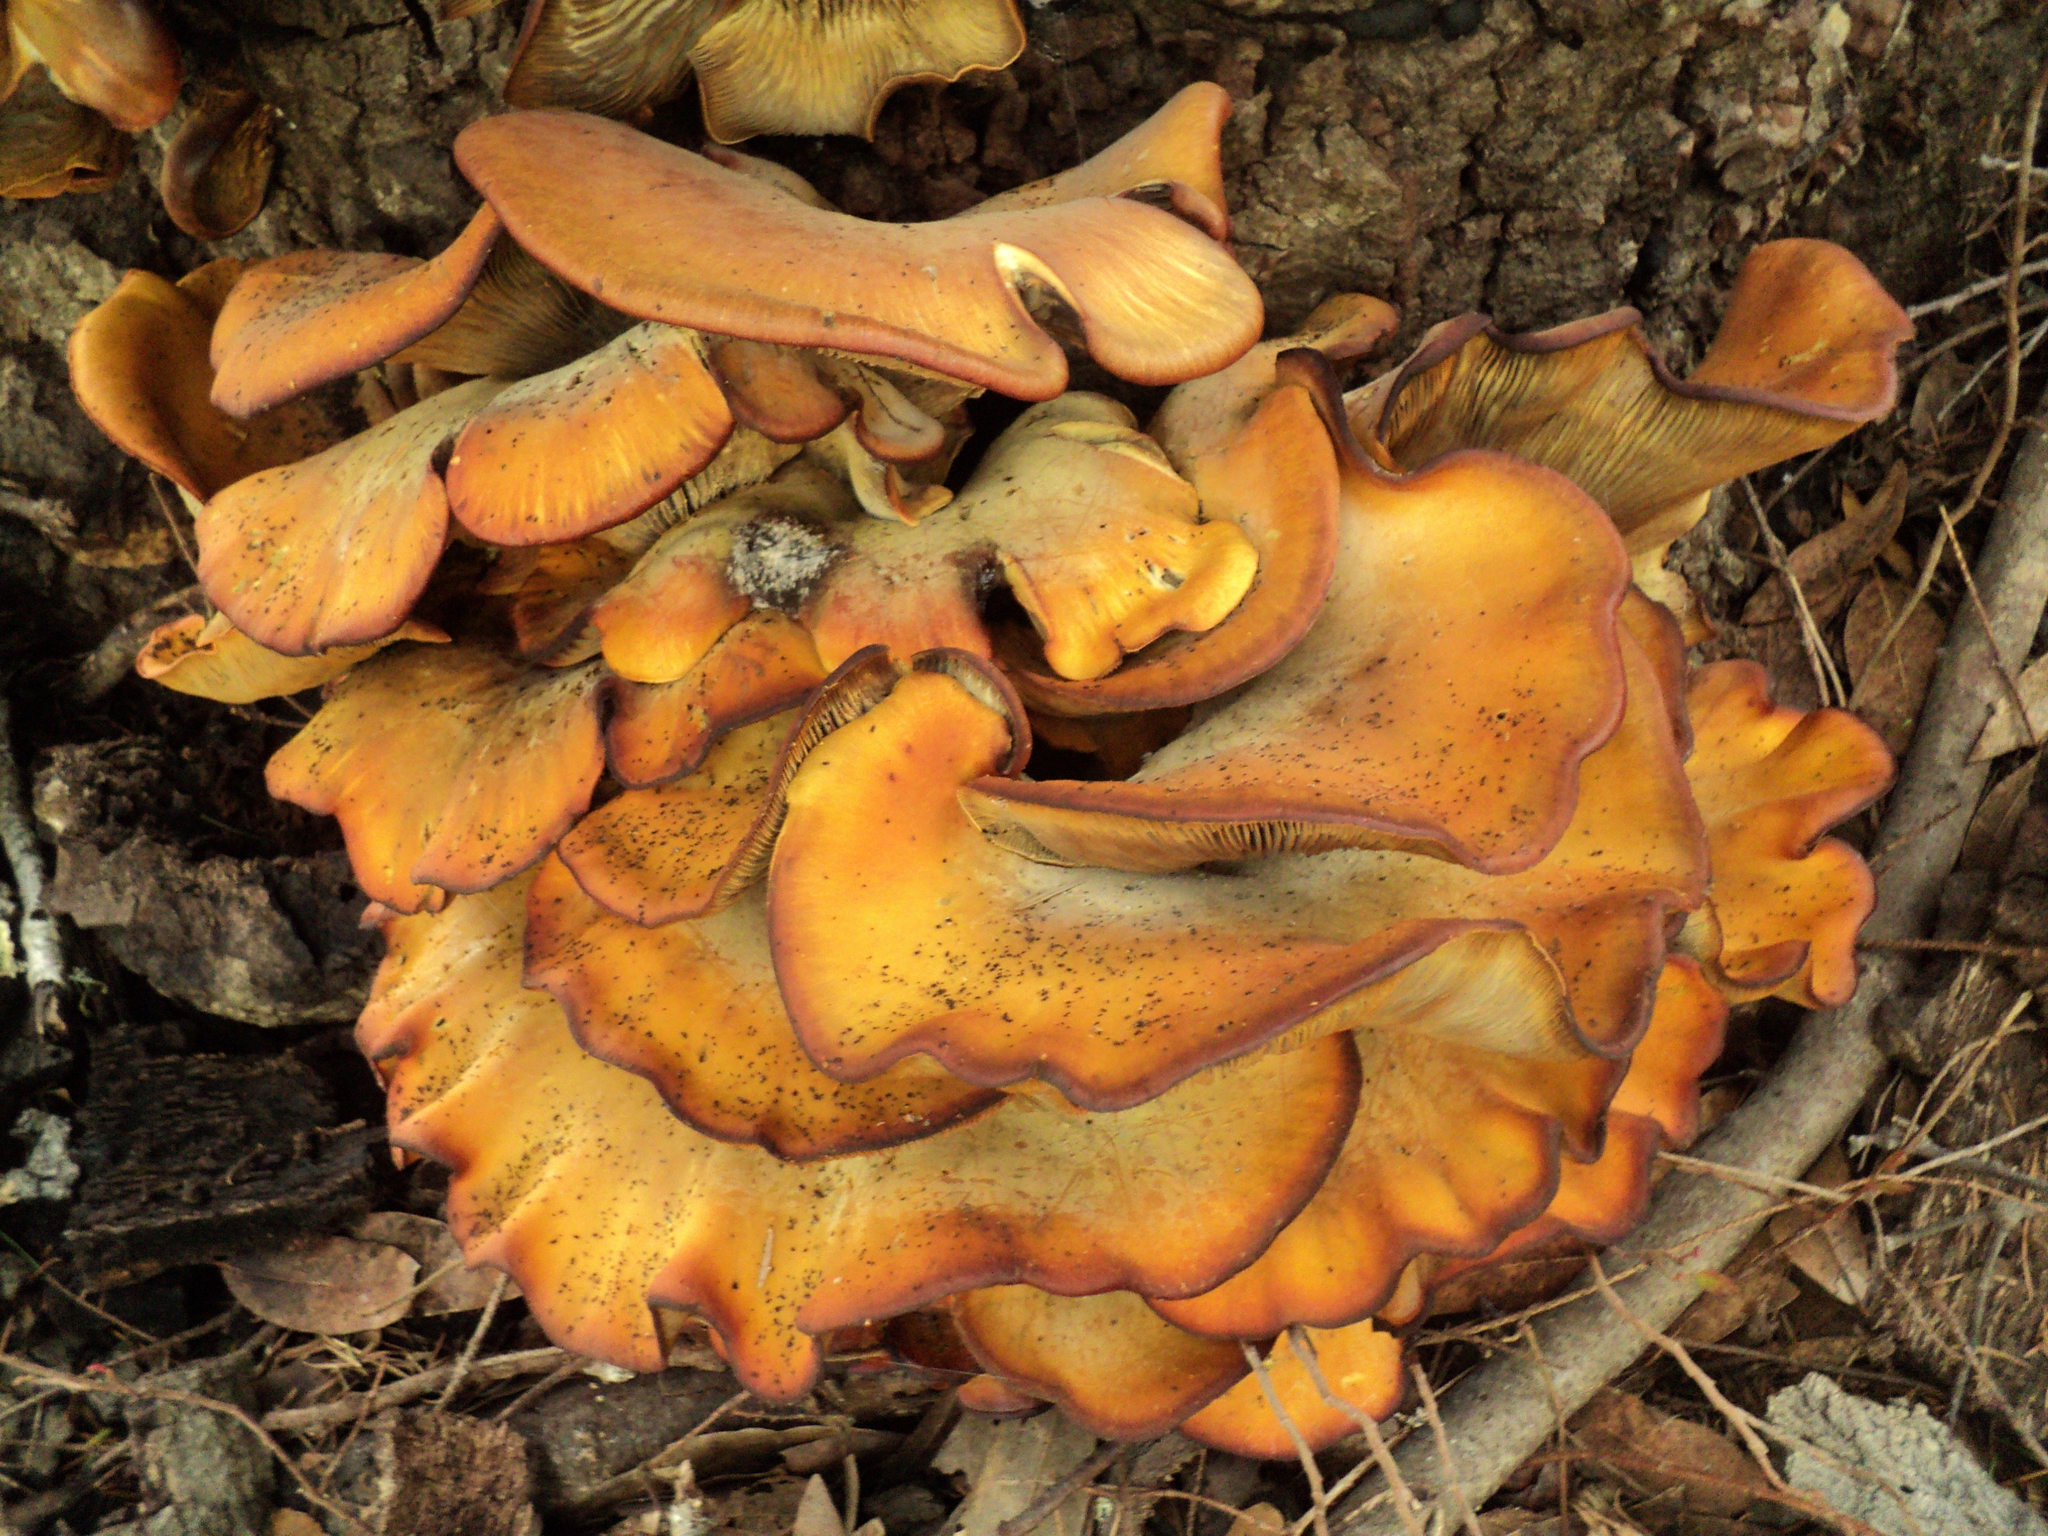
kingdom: Fungi
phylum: Basidiomycota
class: Agaricomycetes
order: Agaricales
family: Omphalotaceae
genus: Omphalotus
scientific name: Omphalotus olivascens
